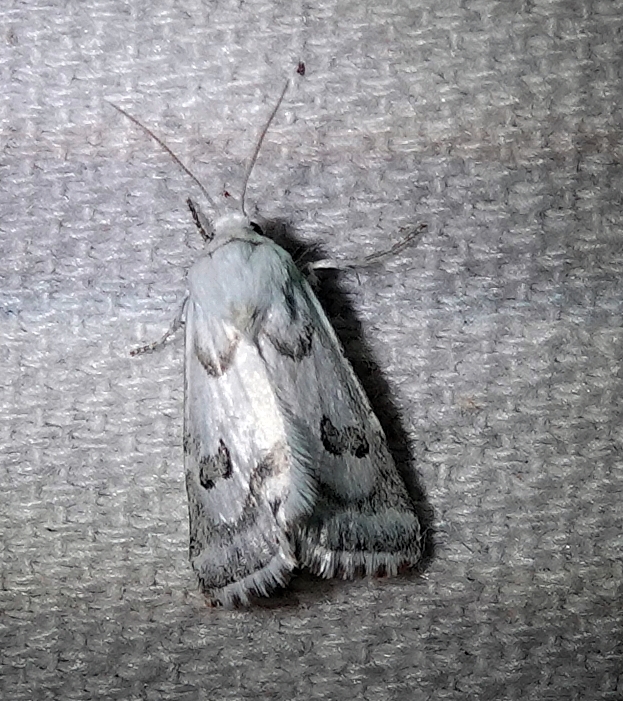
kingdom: Animalia
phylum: Arthropoda
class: Insecta
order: Lepidoptera
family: Noctuidae
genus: Schinia
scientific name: Schinia reniformis
